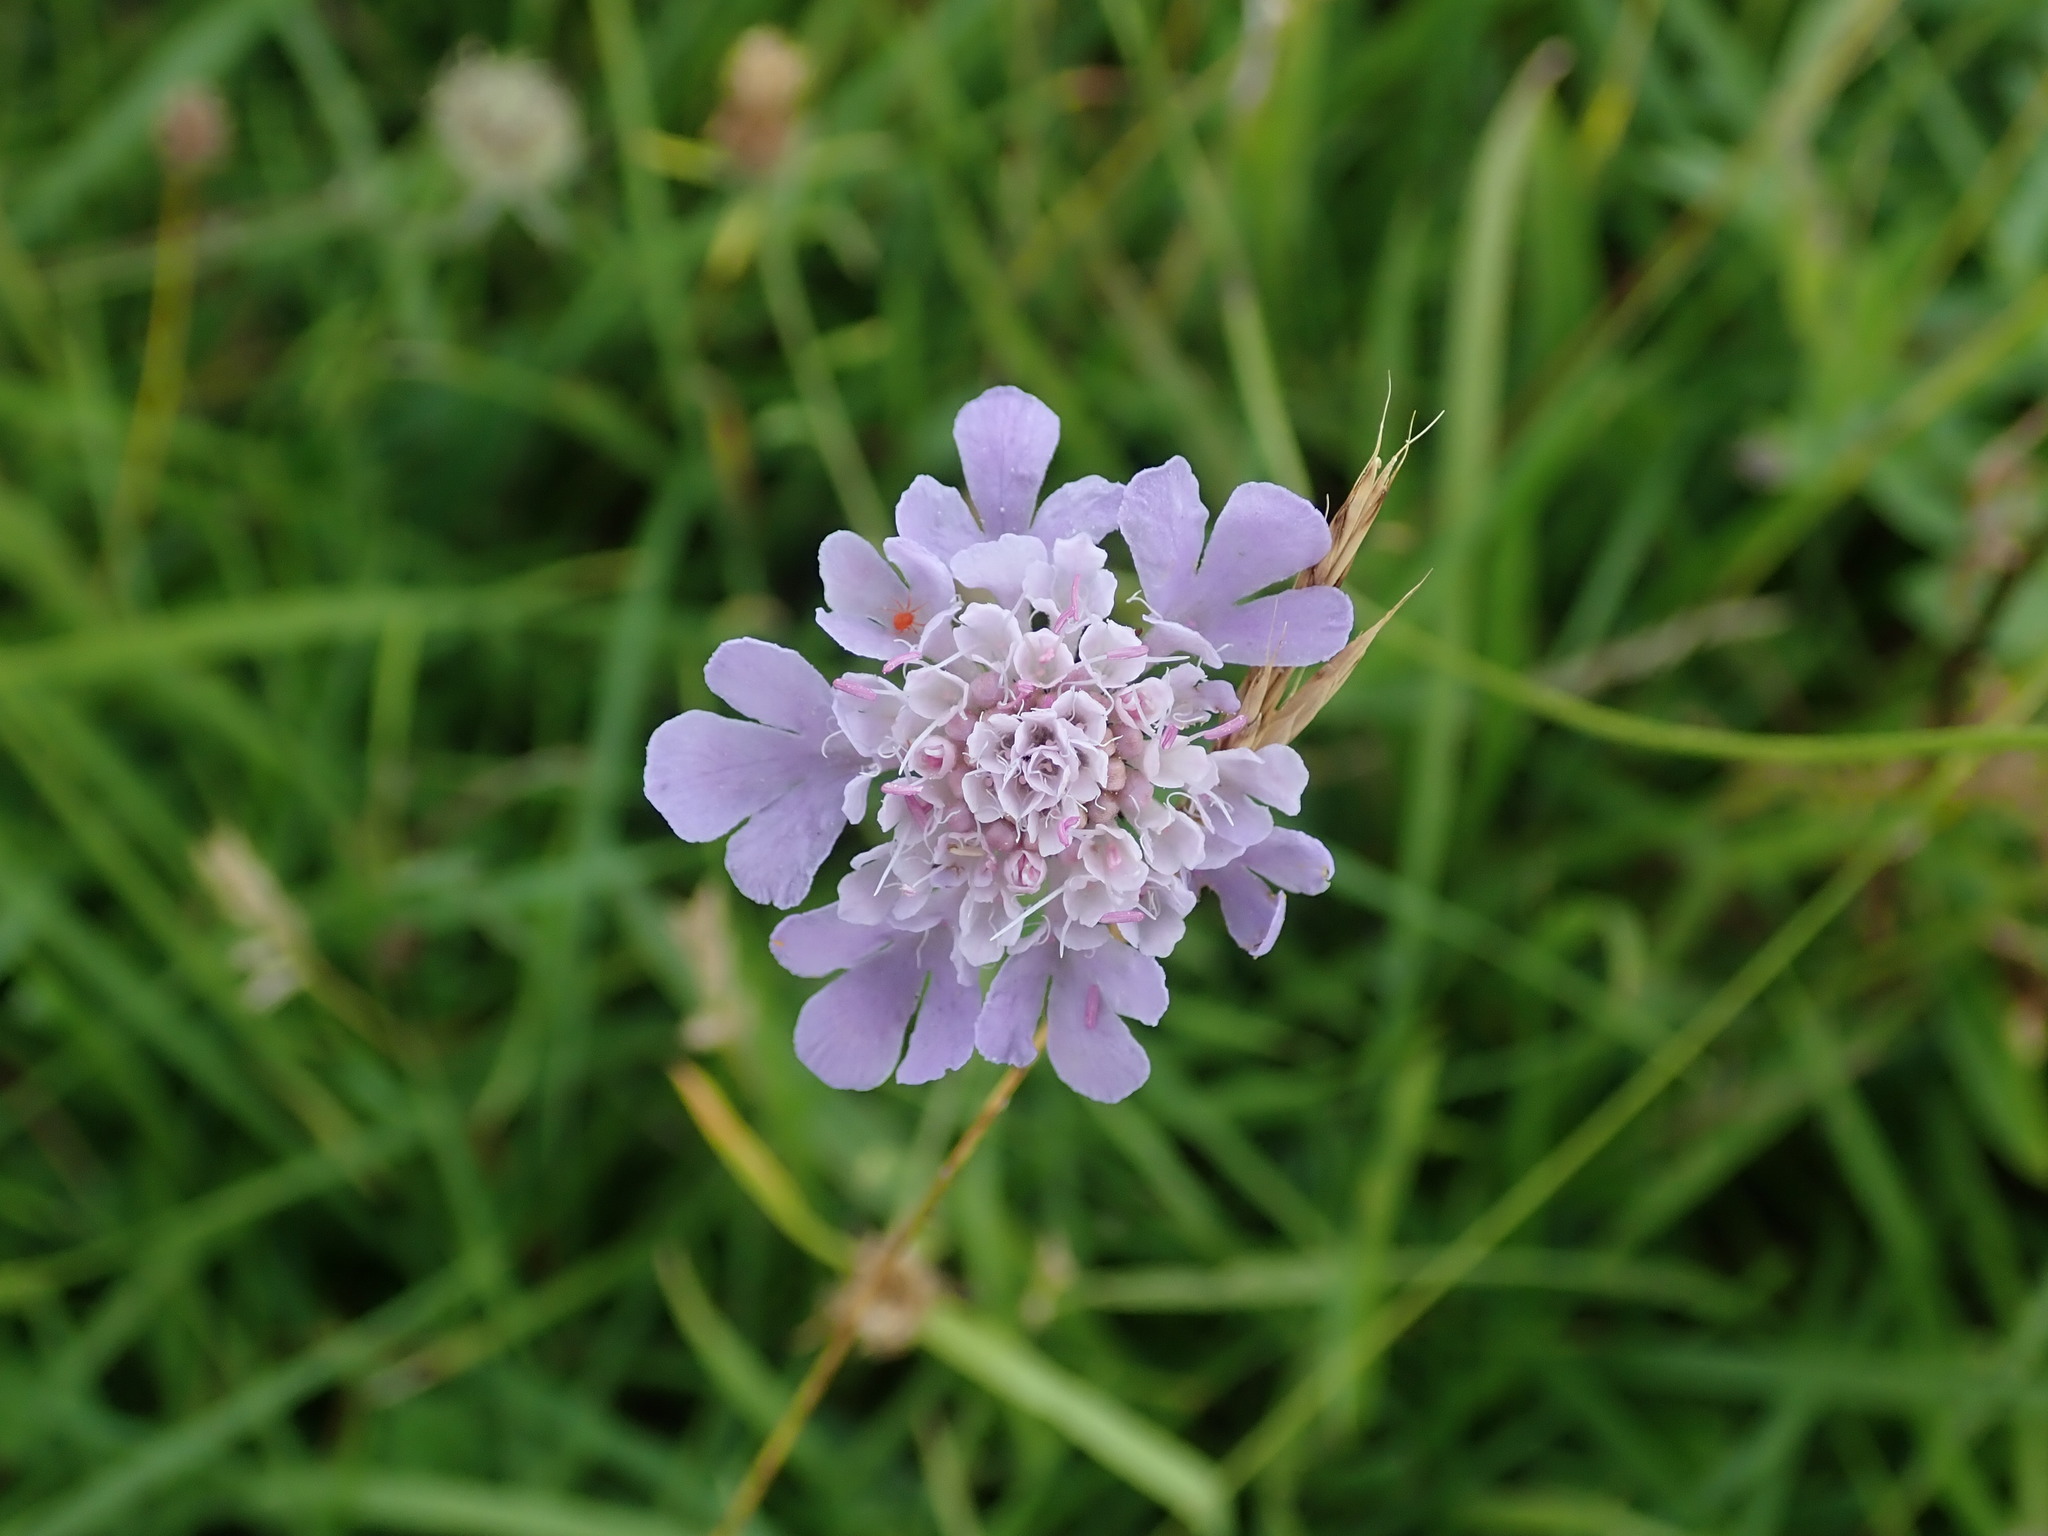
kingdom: Plantae
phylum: Tracheophyta
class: Magnoliopsida
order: Dipsacales
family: Caprifoliaceae
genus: Scabiosa
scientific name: Scabiosa columbaria
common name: Small scabious
